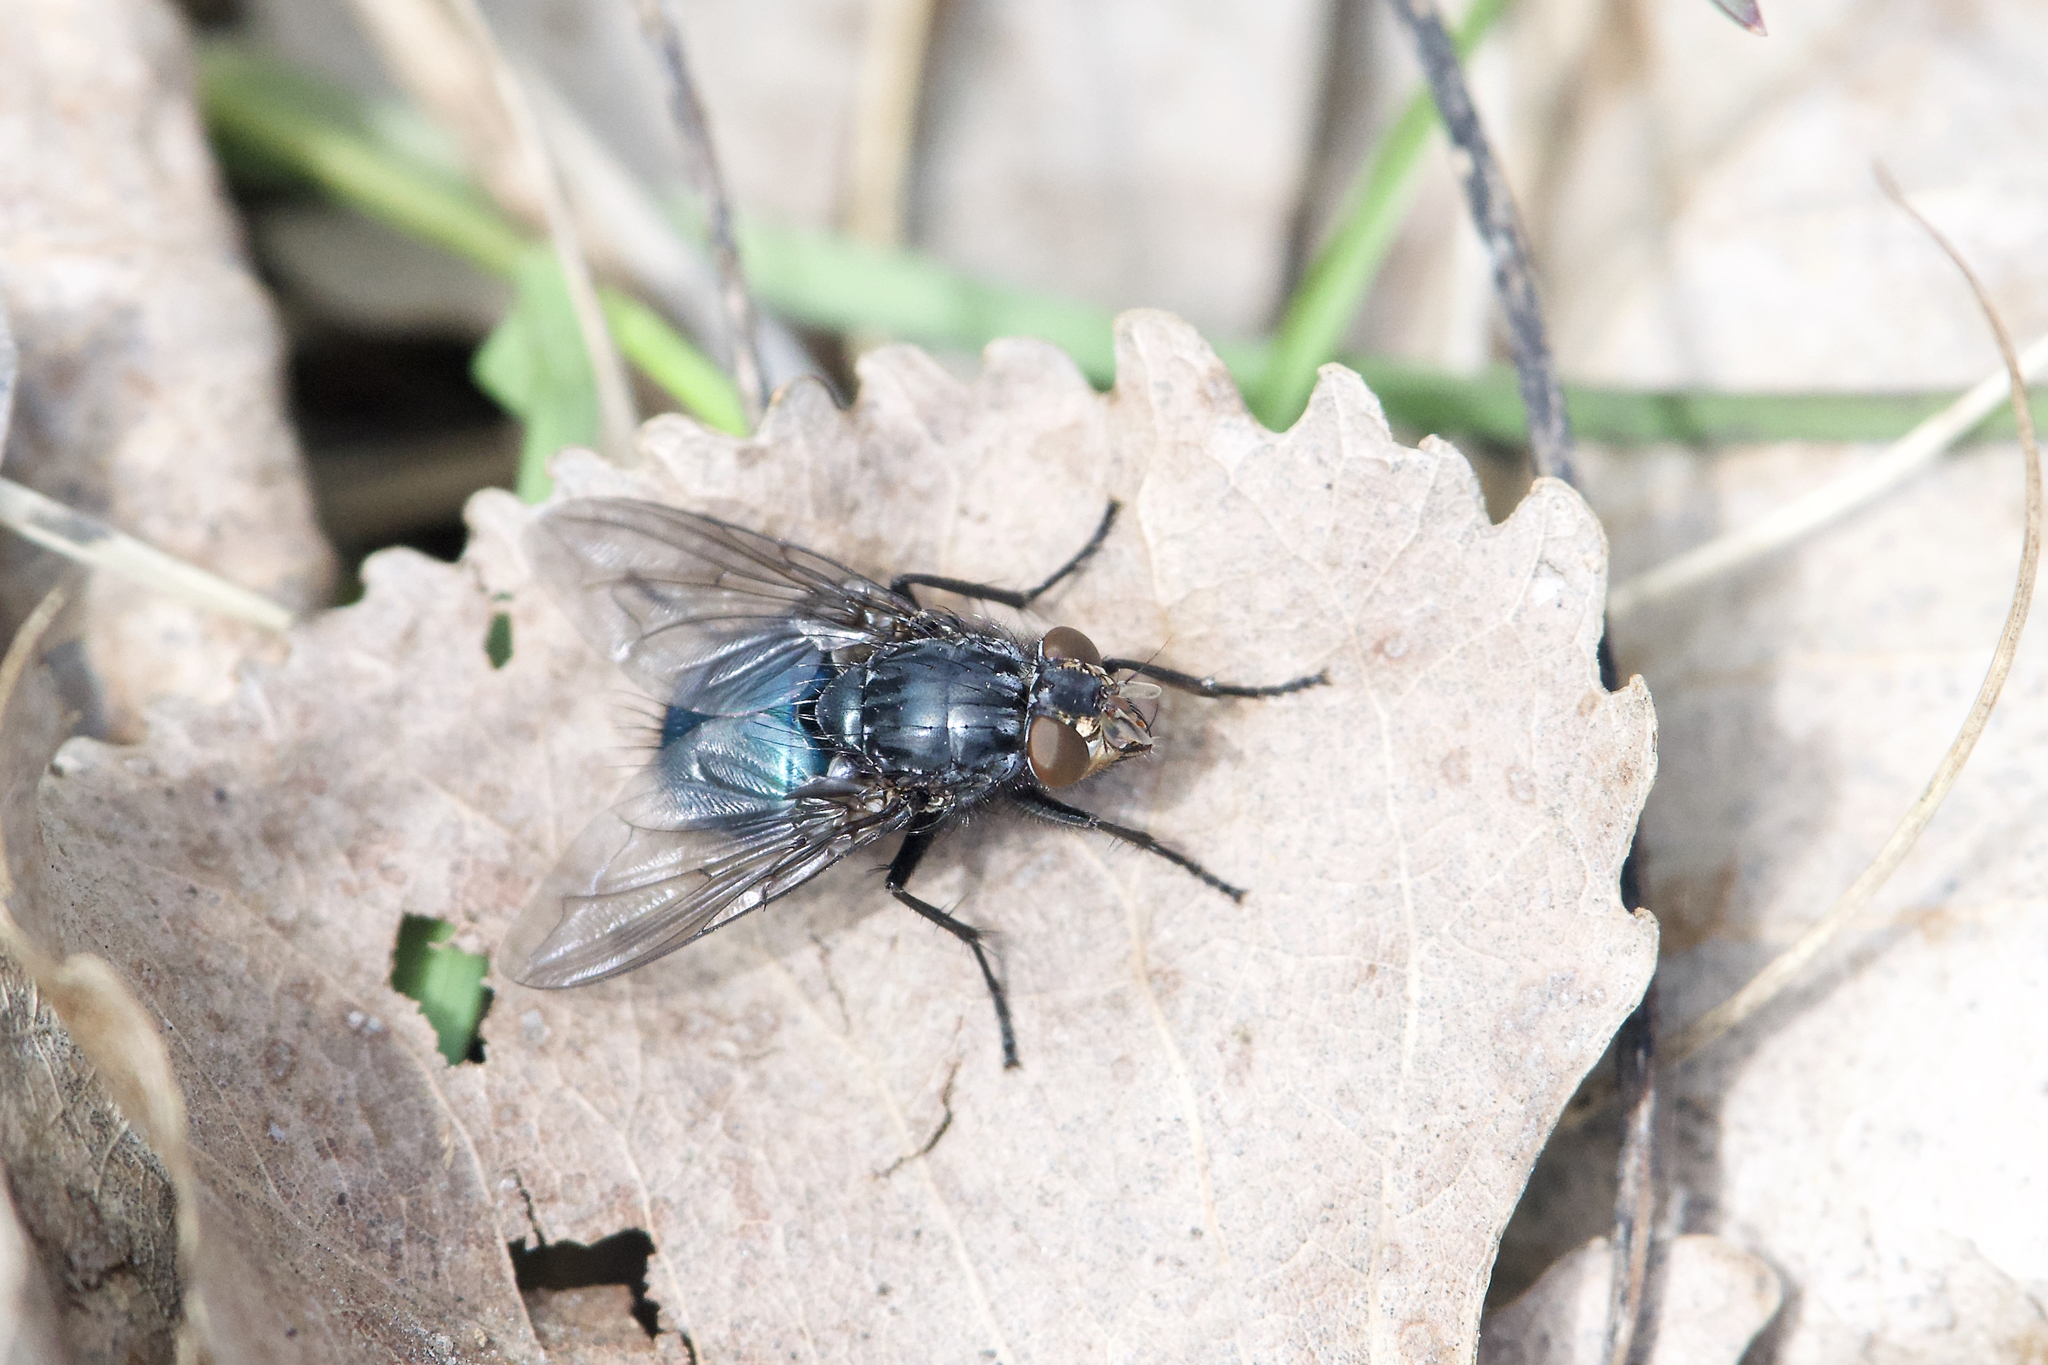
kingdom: Animalia
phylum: Arthropoda
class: Insecta
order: Diptera
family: Calliphoridae
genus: Cynomya
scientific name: Cynomya cadaverina
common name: Shiny blue bottle fly
